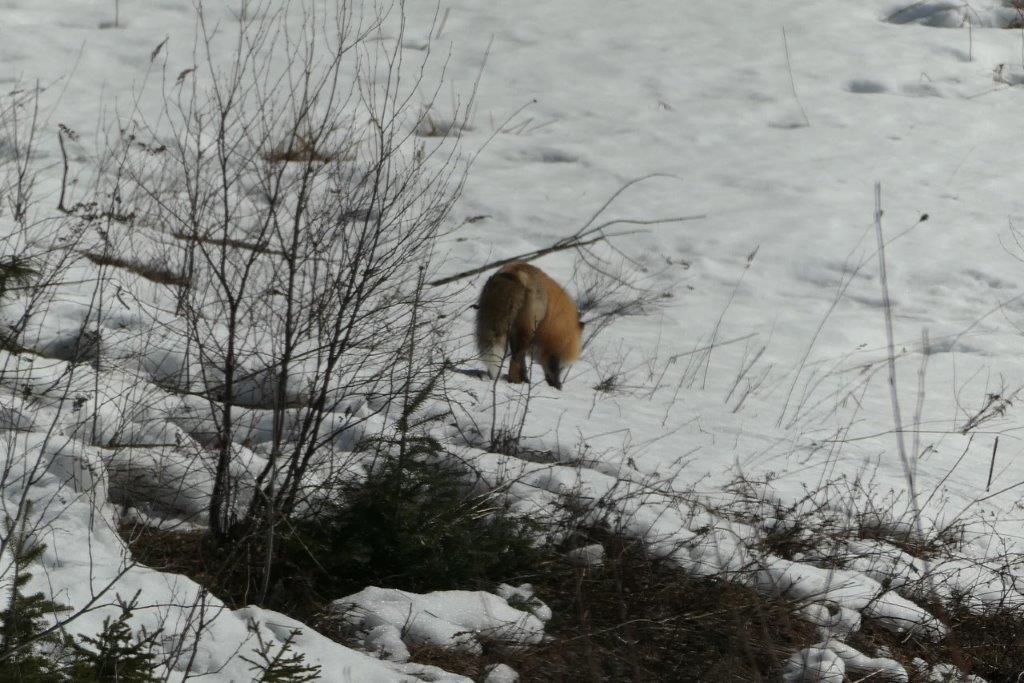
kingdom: Animalia
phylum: Chordata
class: Mammalia
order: Carnivora
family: Canidae
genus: Vulpes
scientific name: Vulpes vulpes
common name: Red fox
